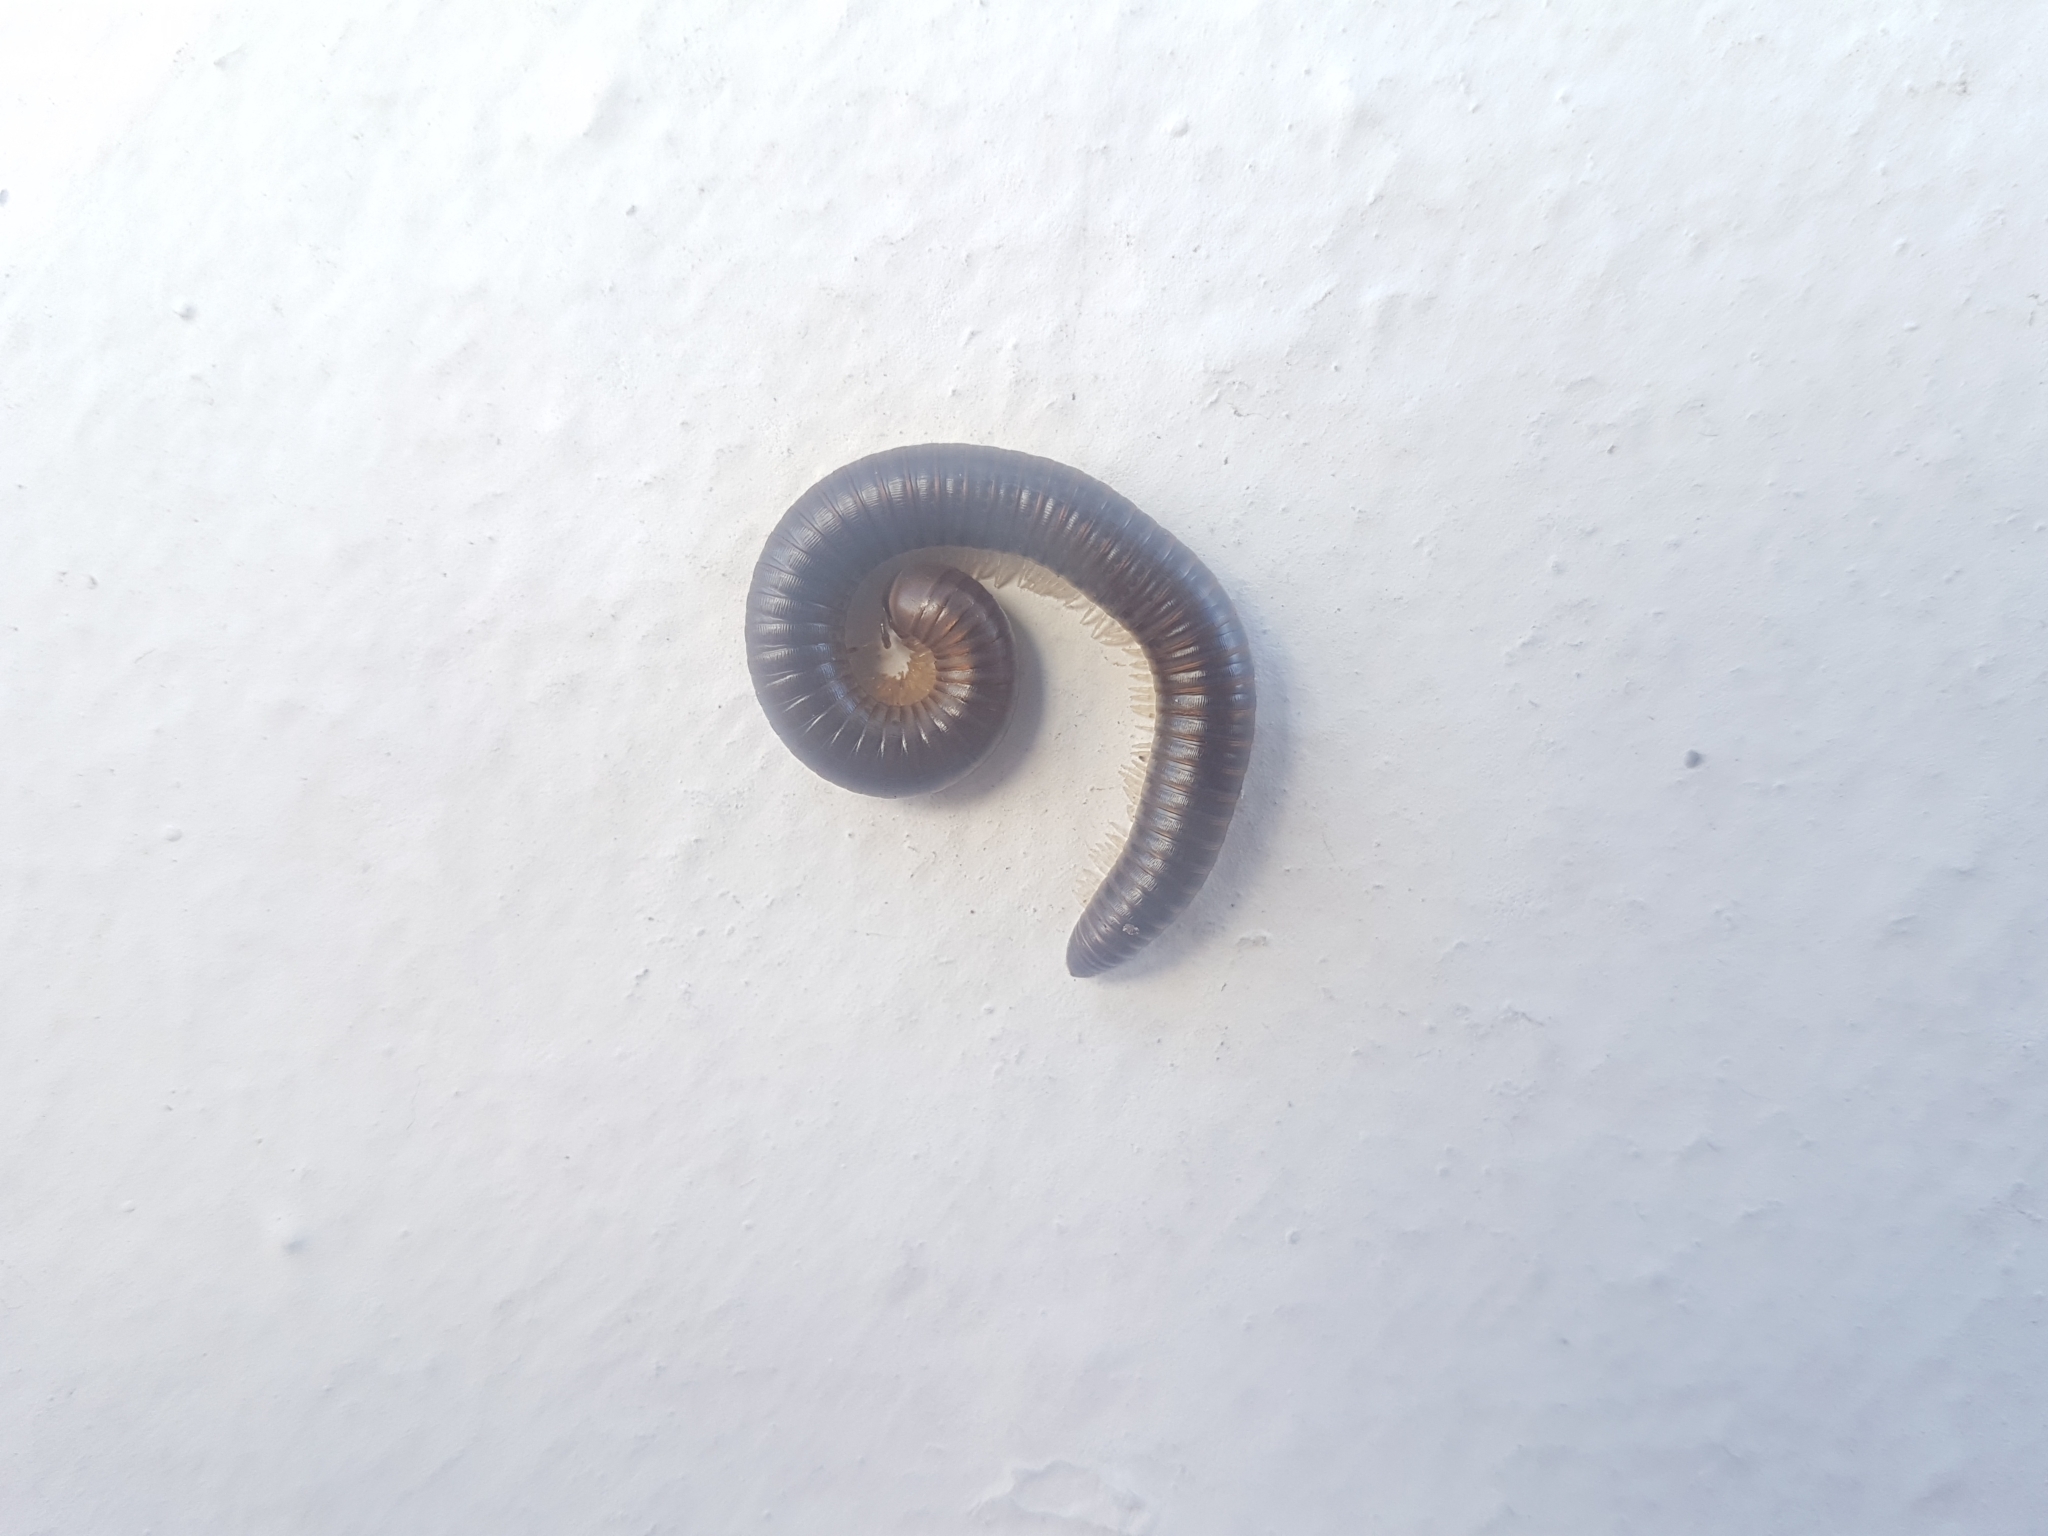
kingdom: Animalia
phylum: Arthropoda
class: Diplopoda
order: Julida
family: Julidae
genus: Pachyiulus
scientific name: Pachyiulus flavipes
